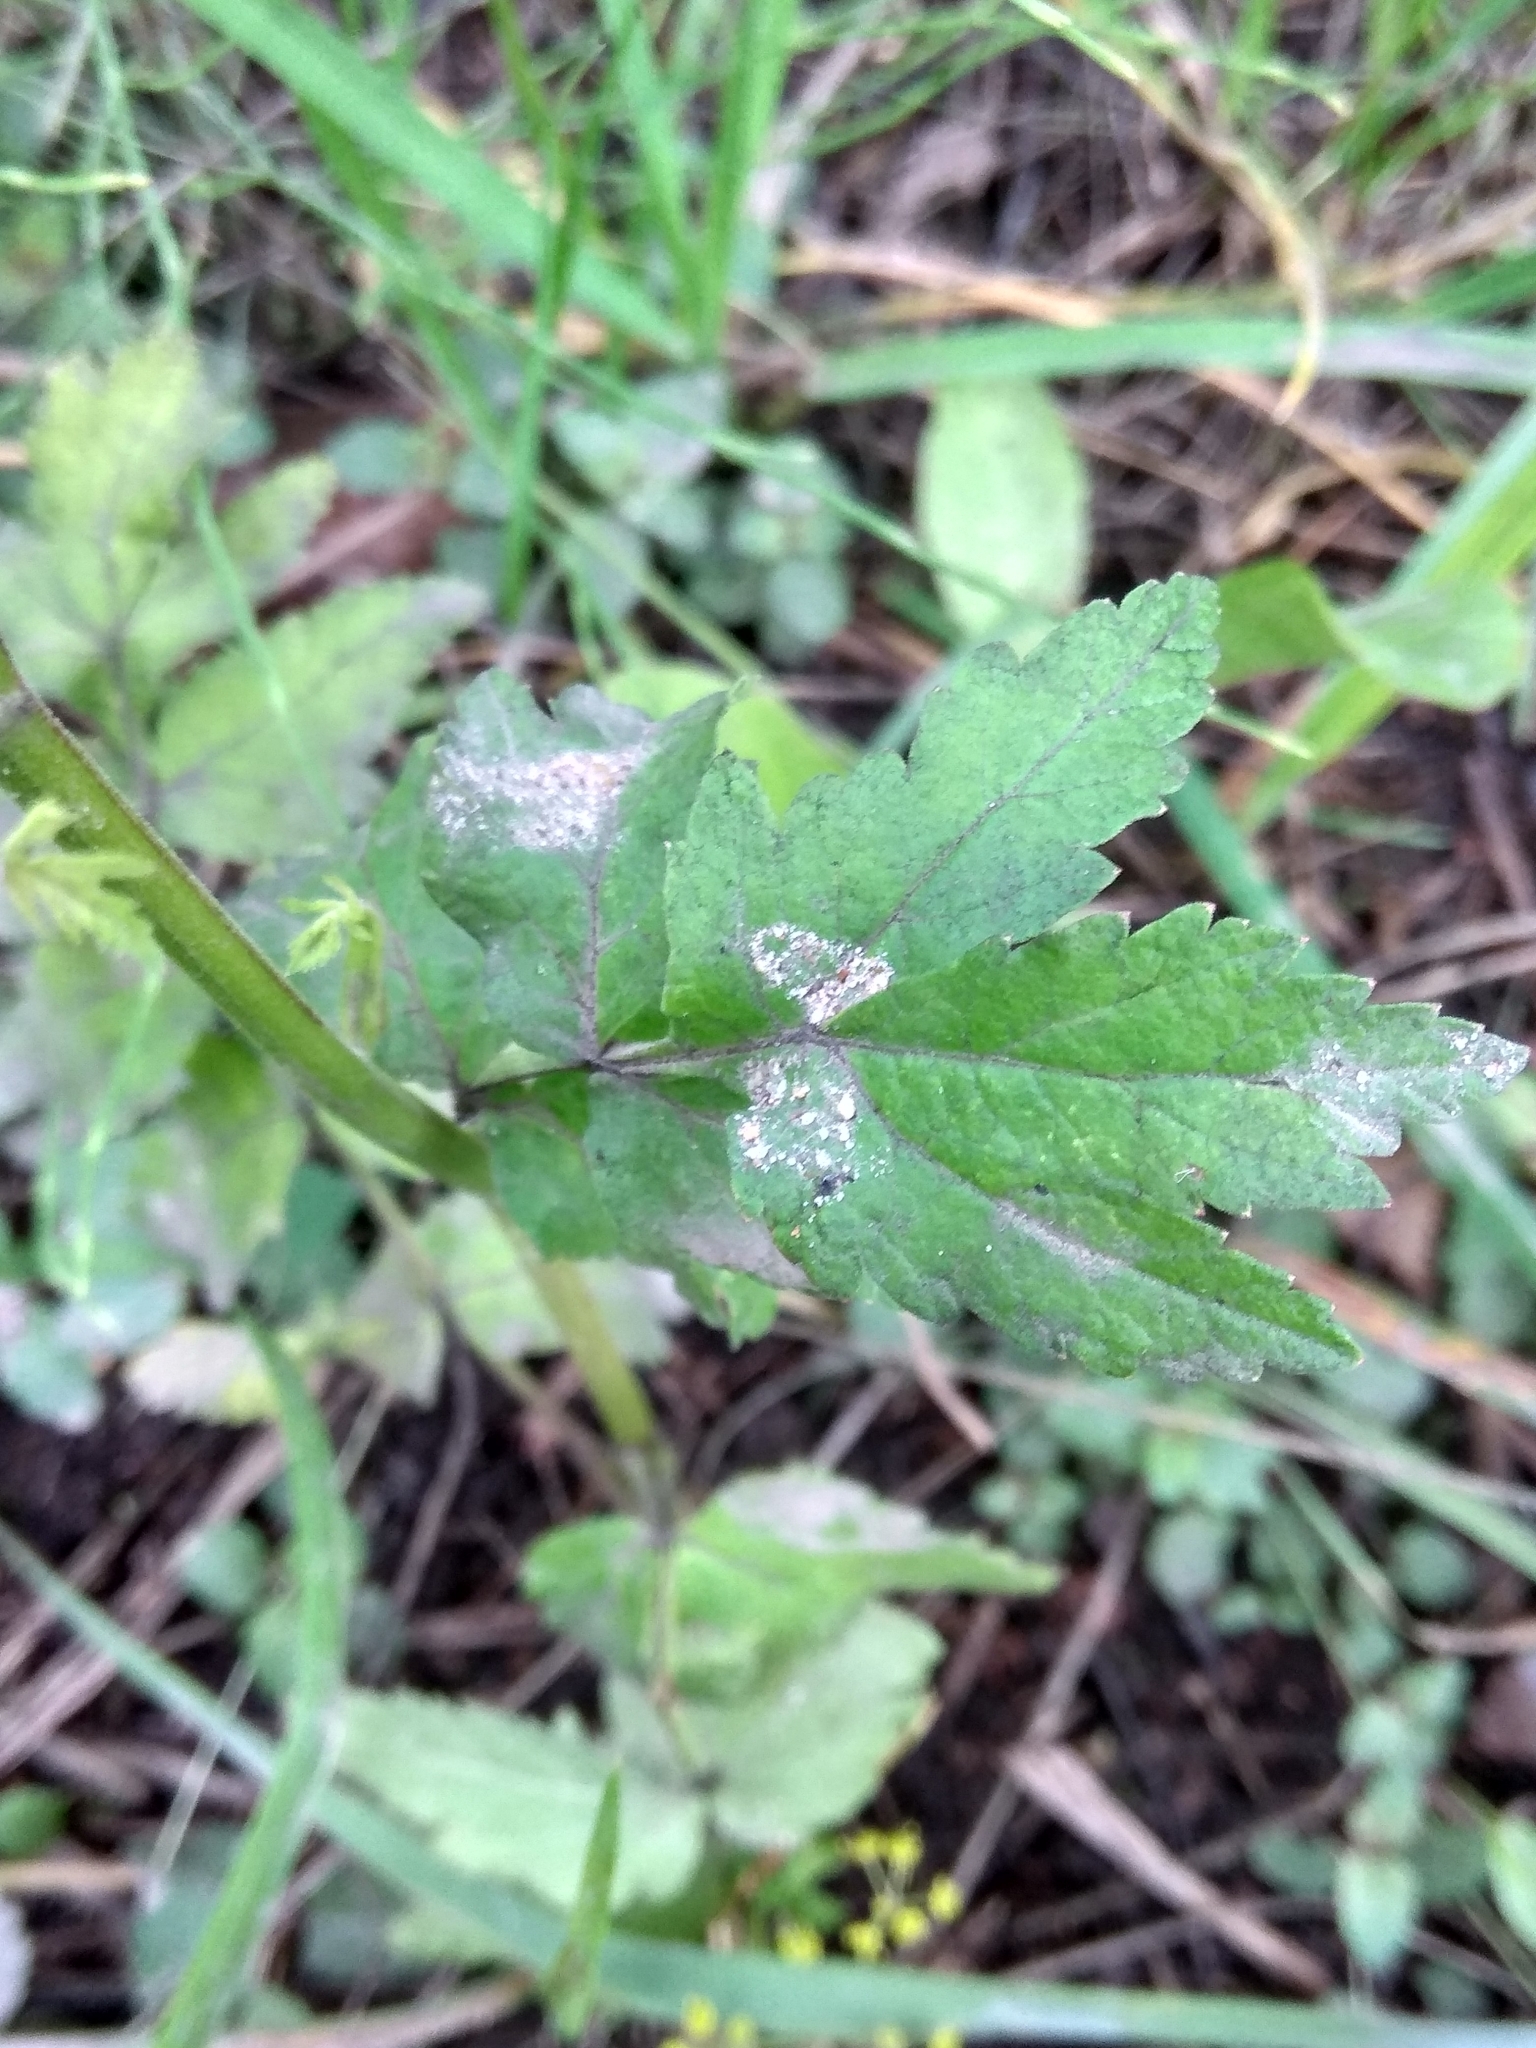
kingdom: Plantae
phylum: Tracheophyta
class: Magnoliopsida
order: Apiales
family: Apiaceae
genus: Pastinaca
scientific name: Pastinaca sativa
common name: Wild parsnip
